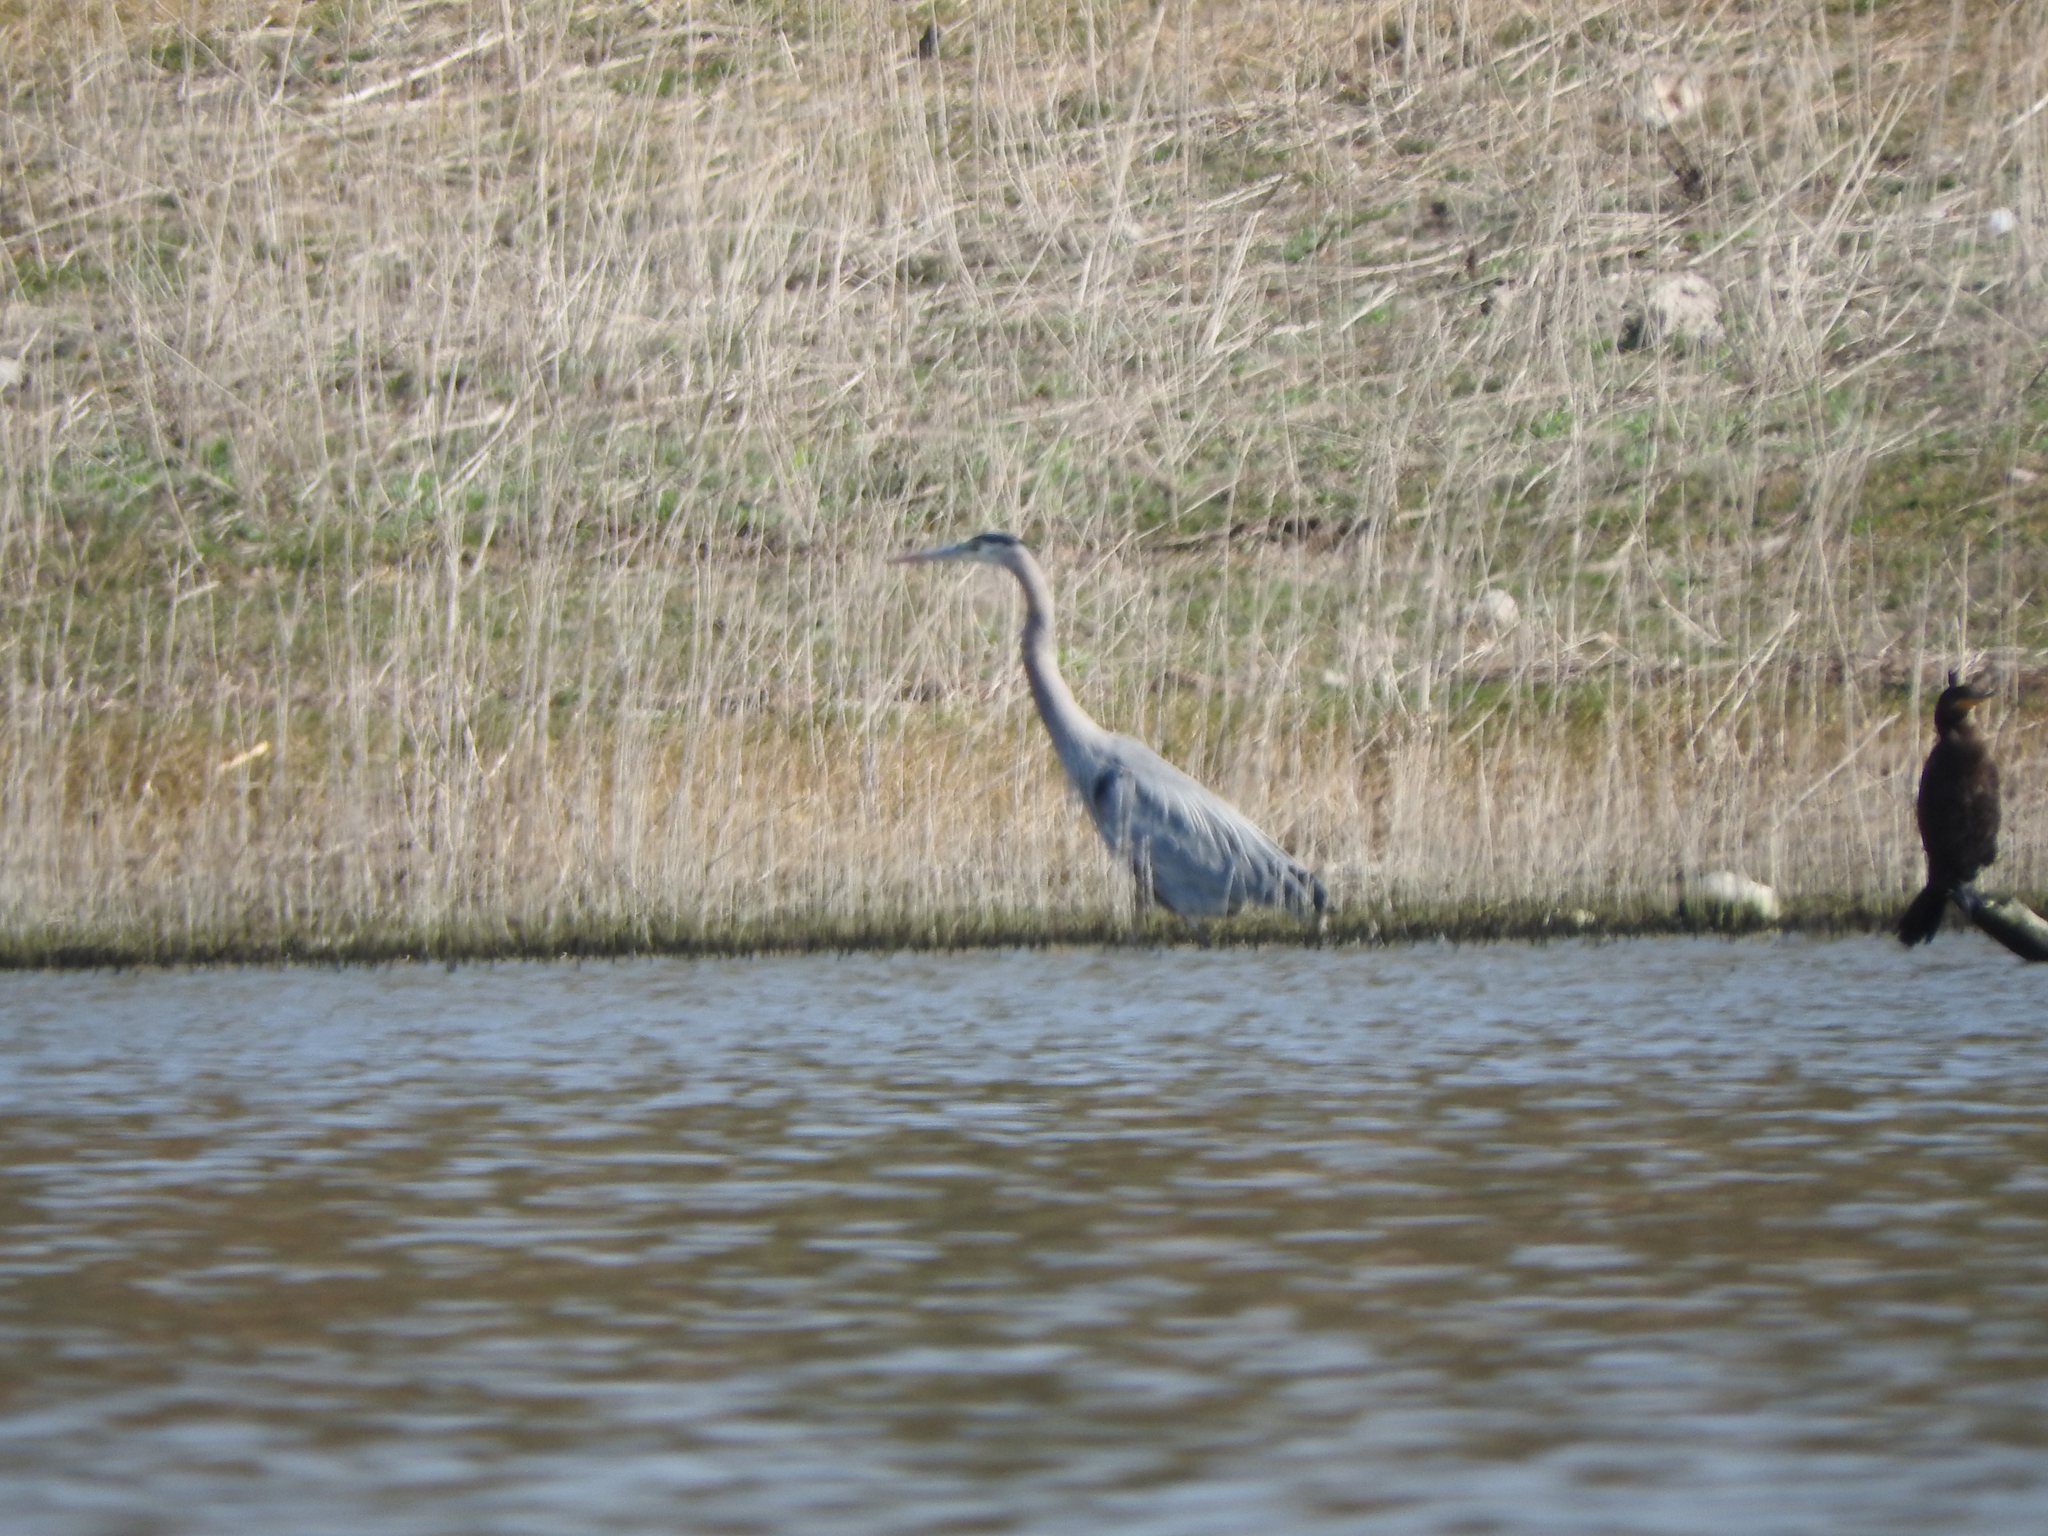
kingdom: Animalia
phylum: Chordata
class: Aves
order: Pelecaniformes
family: Ardeidae
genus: Ardea
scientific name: Ardea herodias
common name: Great blue heron
